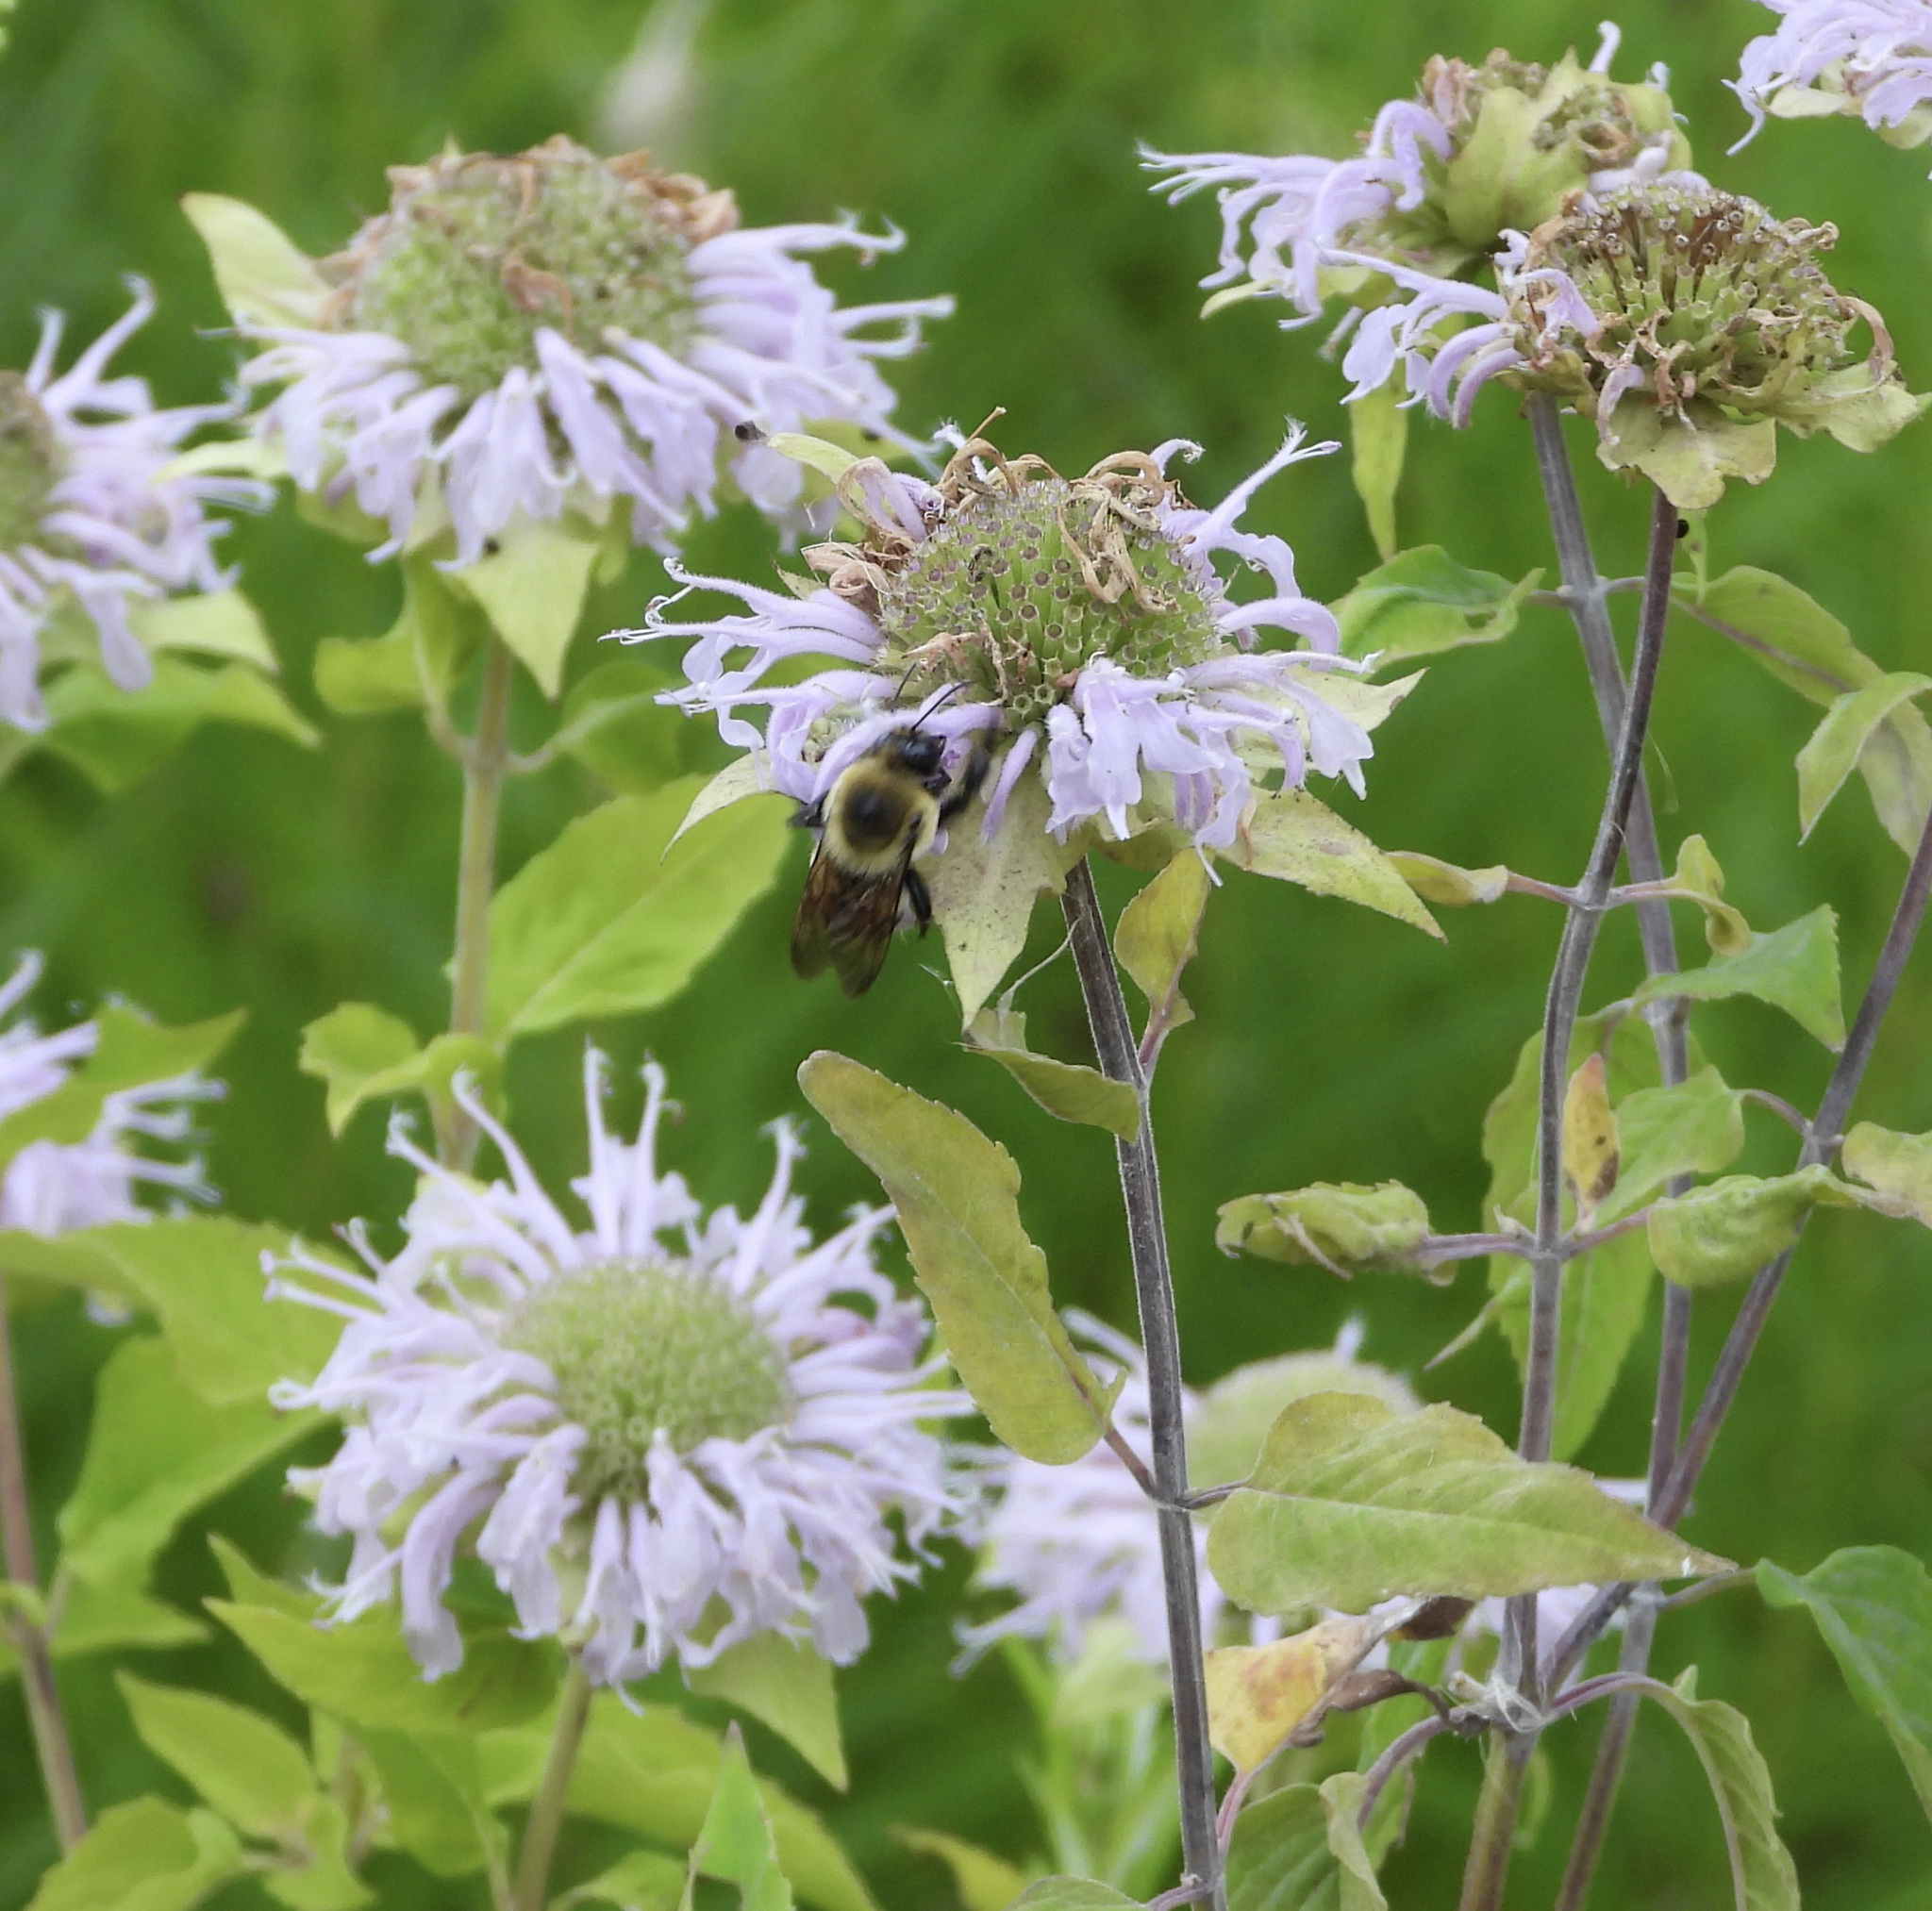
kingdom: Animalia
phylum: Arthropoda
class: Insecta
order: Hymenoptera
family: Apidae
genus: Bombus
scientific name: Bombus griseocollis
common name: Brown-belted bumble bee
